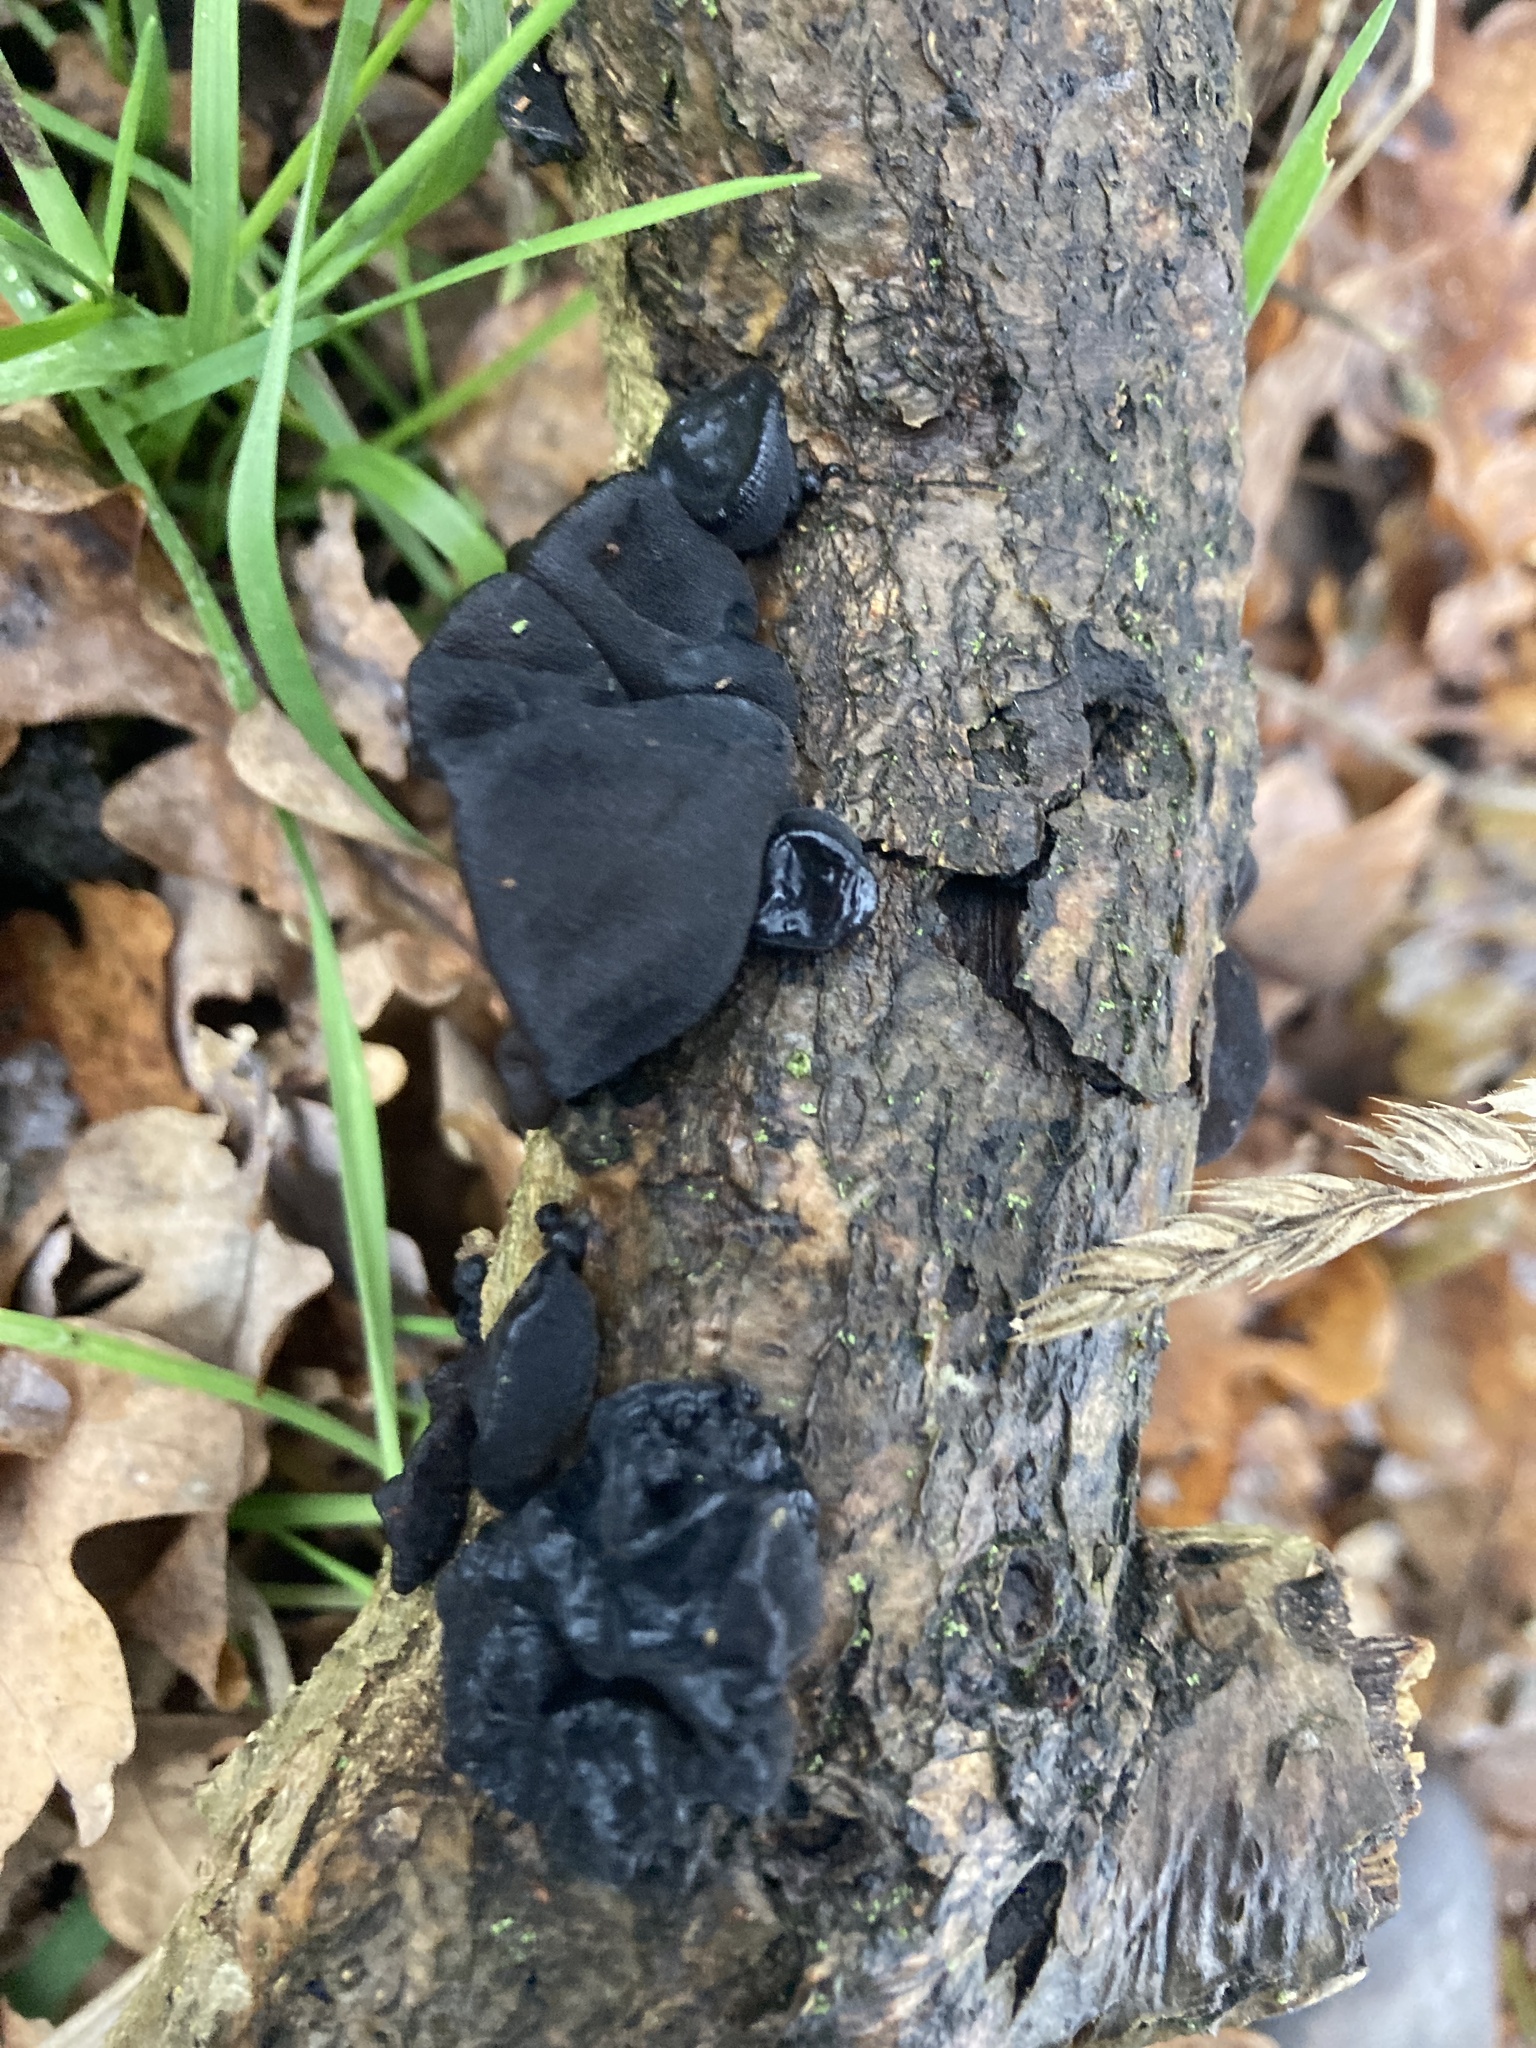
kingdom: Fungi
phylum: Basidiomycota
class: Agaricomycetes
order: Auriculariales
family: Auriculariaceae
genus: Exidia
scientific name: Exidia glandulosa
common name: Witches' butter
